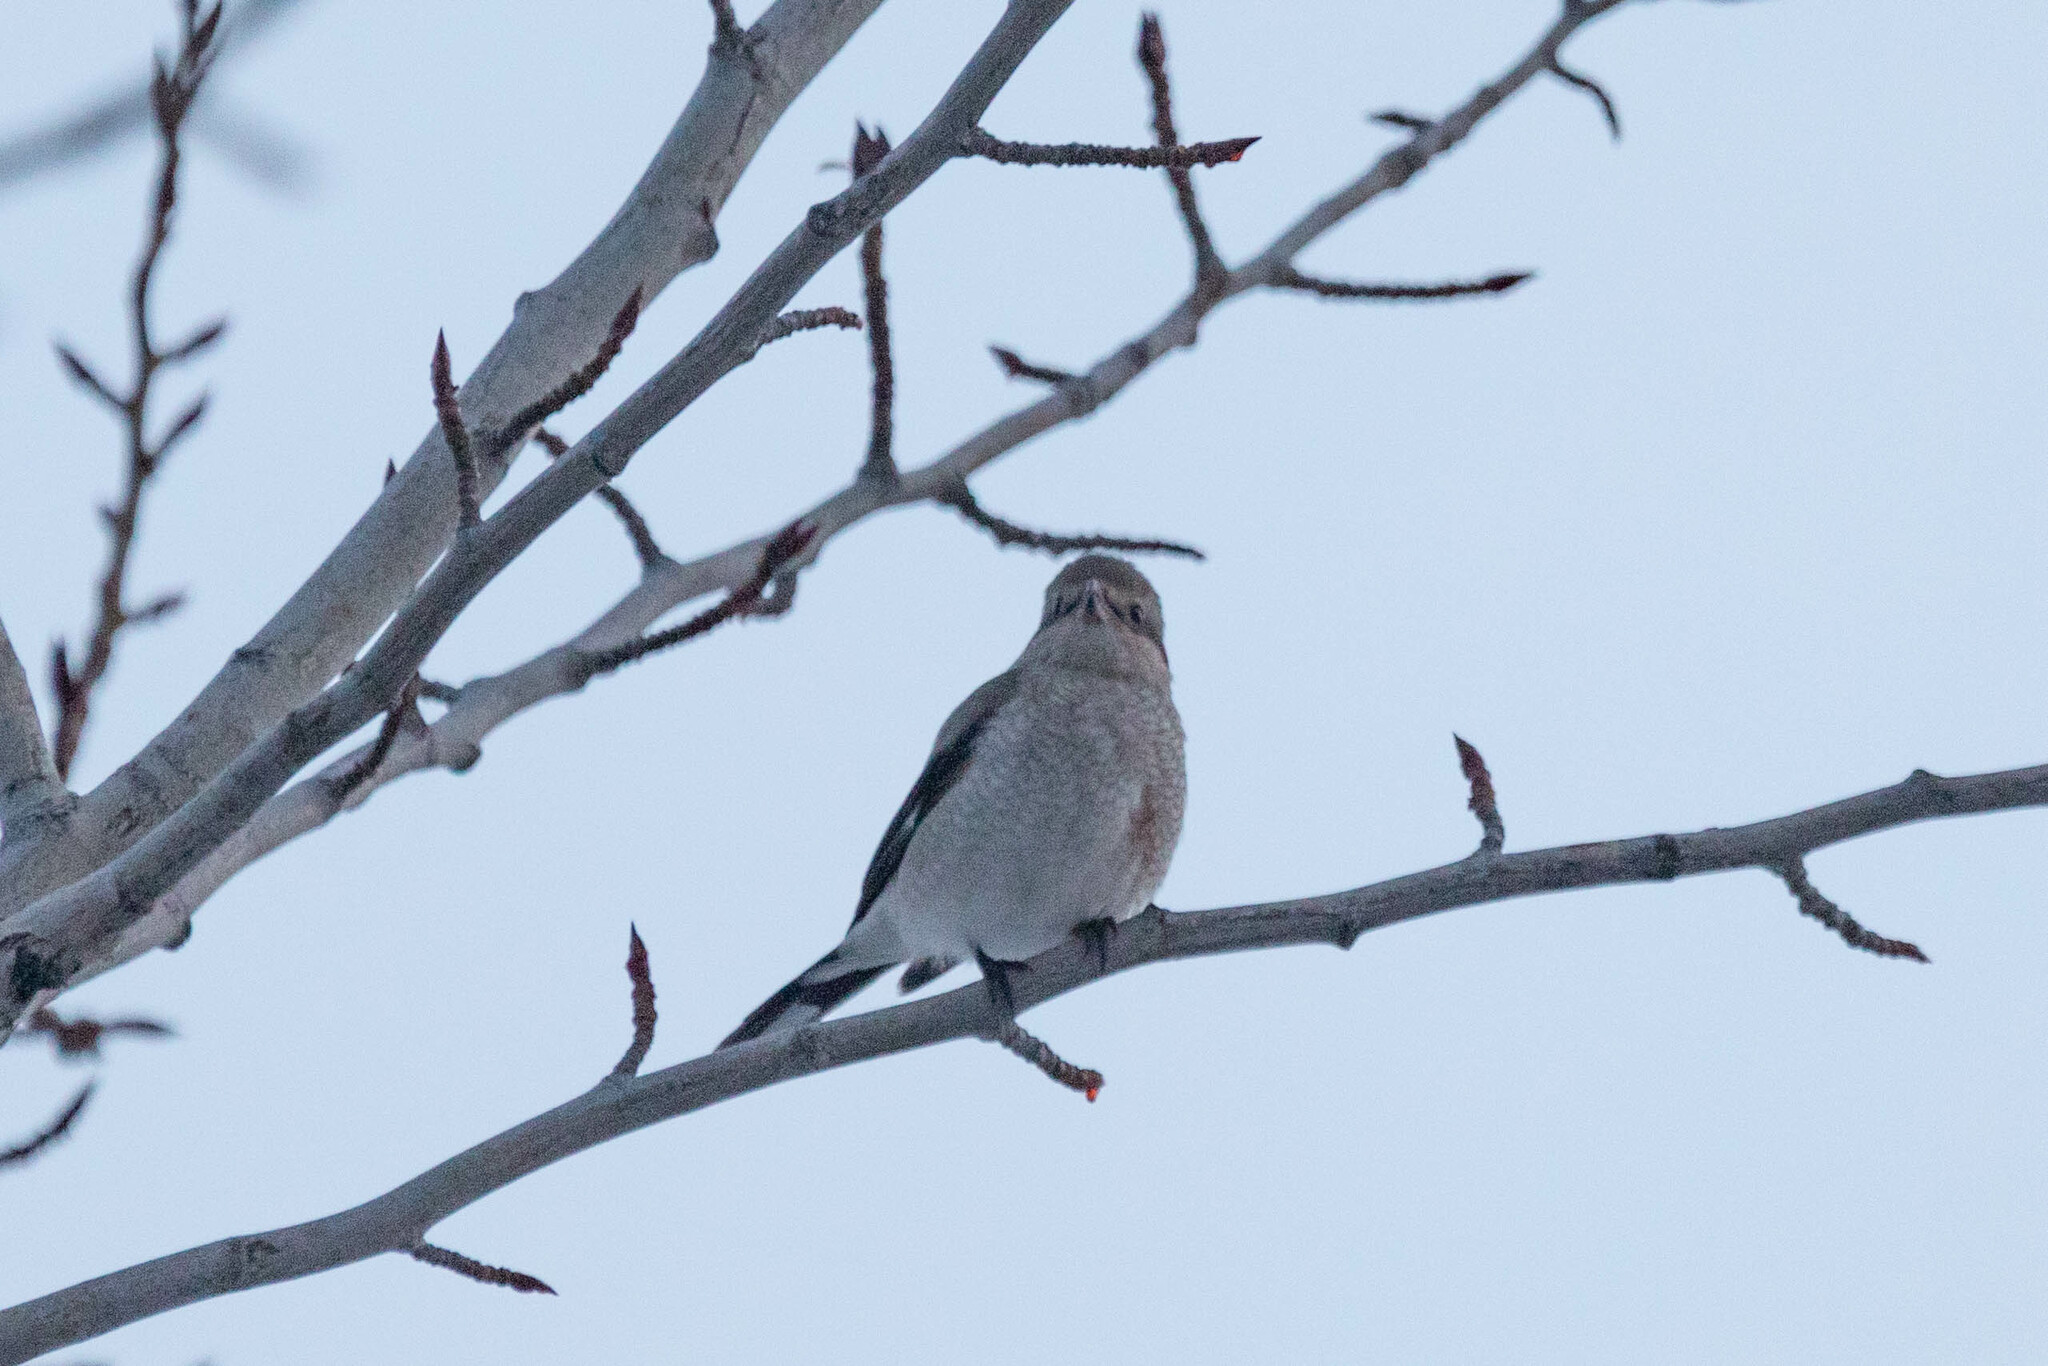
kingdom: Animalia
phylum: Chordata
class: Aves
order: Passeriformes
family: Laniidae
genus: Lanius
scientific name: Lanius borealis
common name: Northern shrike
